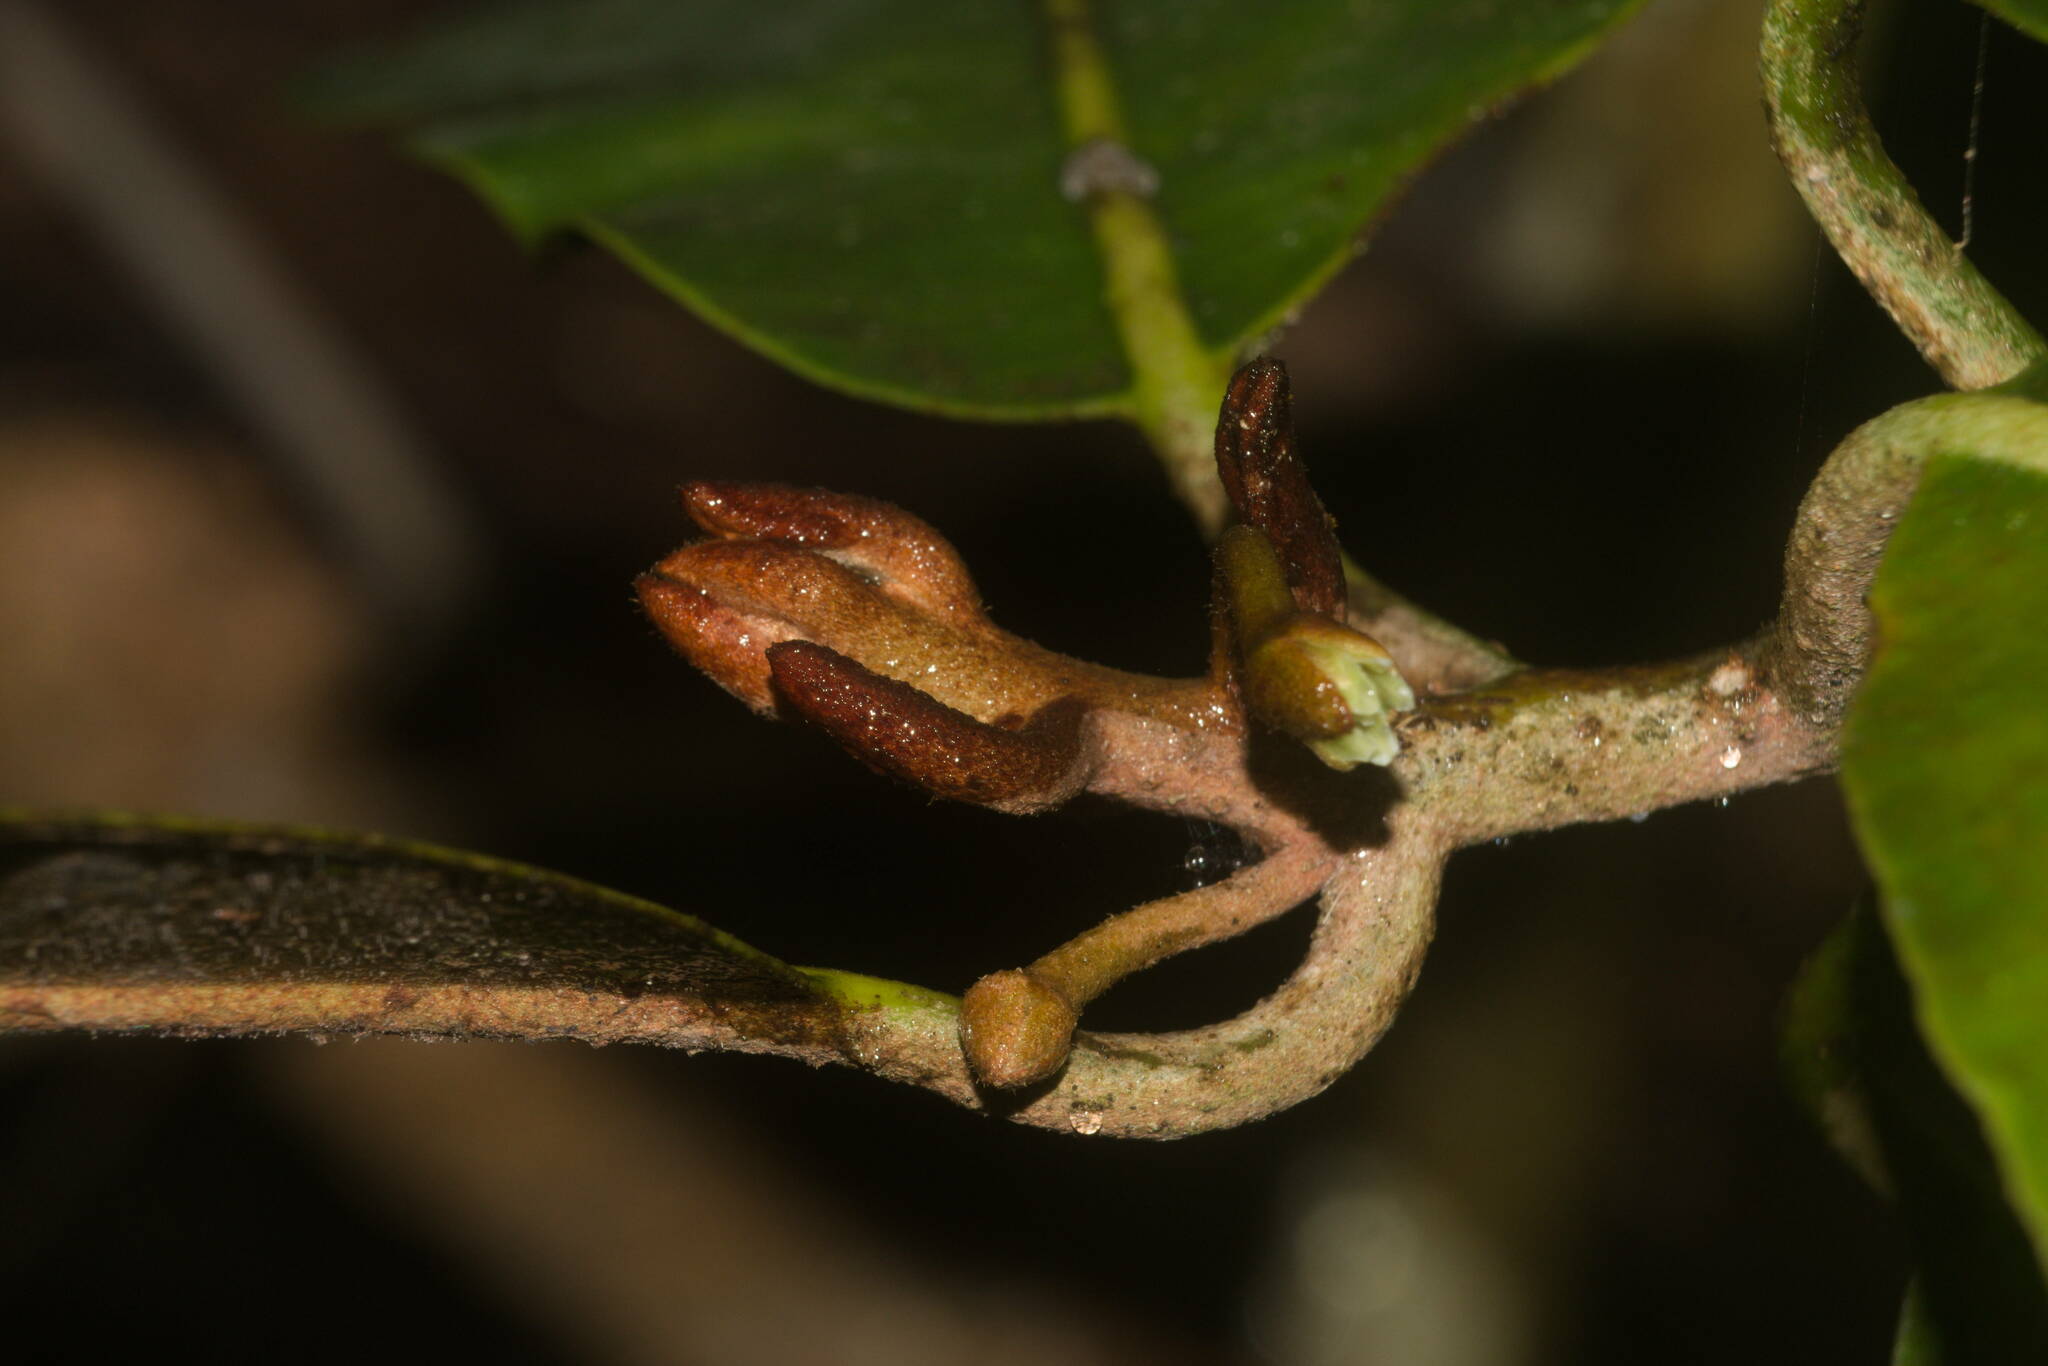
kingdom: Plantae
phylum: Tracheophyta
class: Magnoliopsida
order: Ericales
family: Sapotaceae
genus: Planchonella
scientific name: Planchonella sandwicensis
